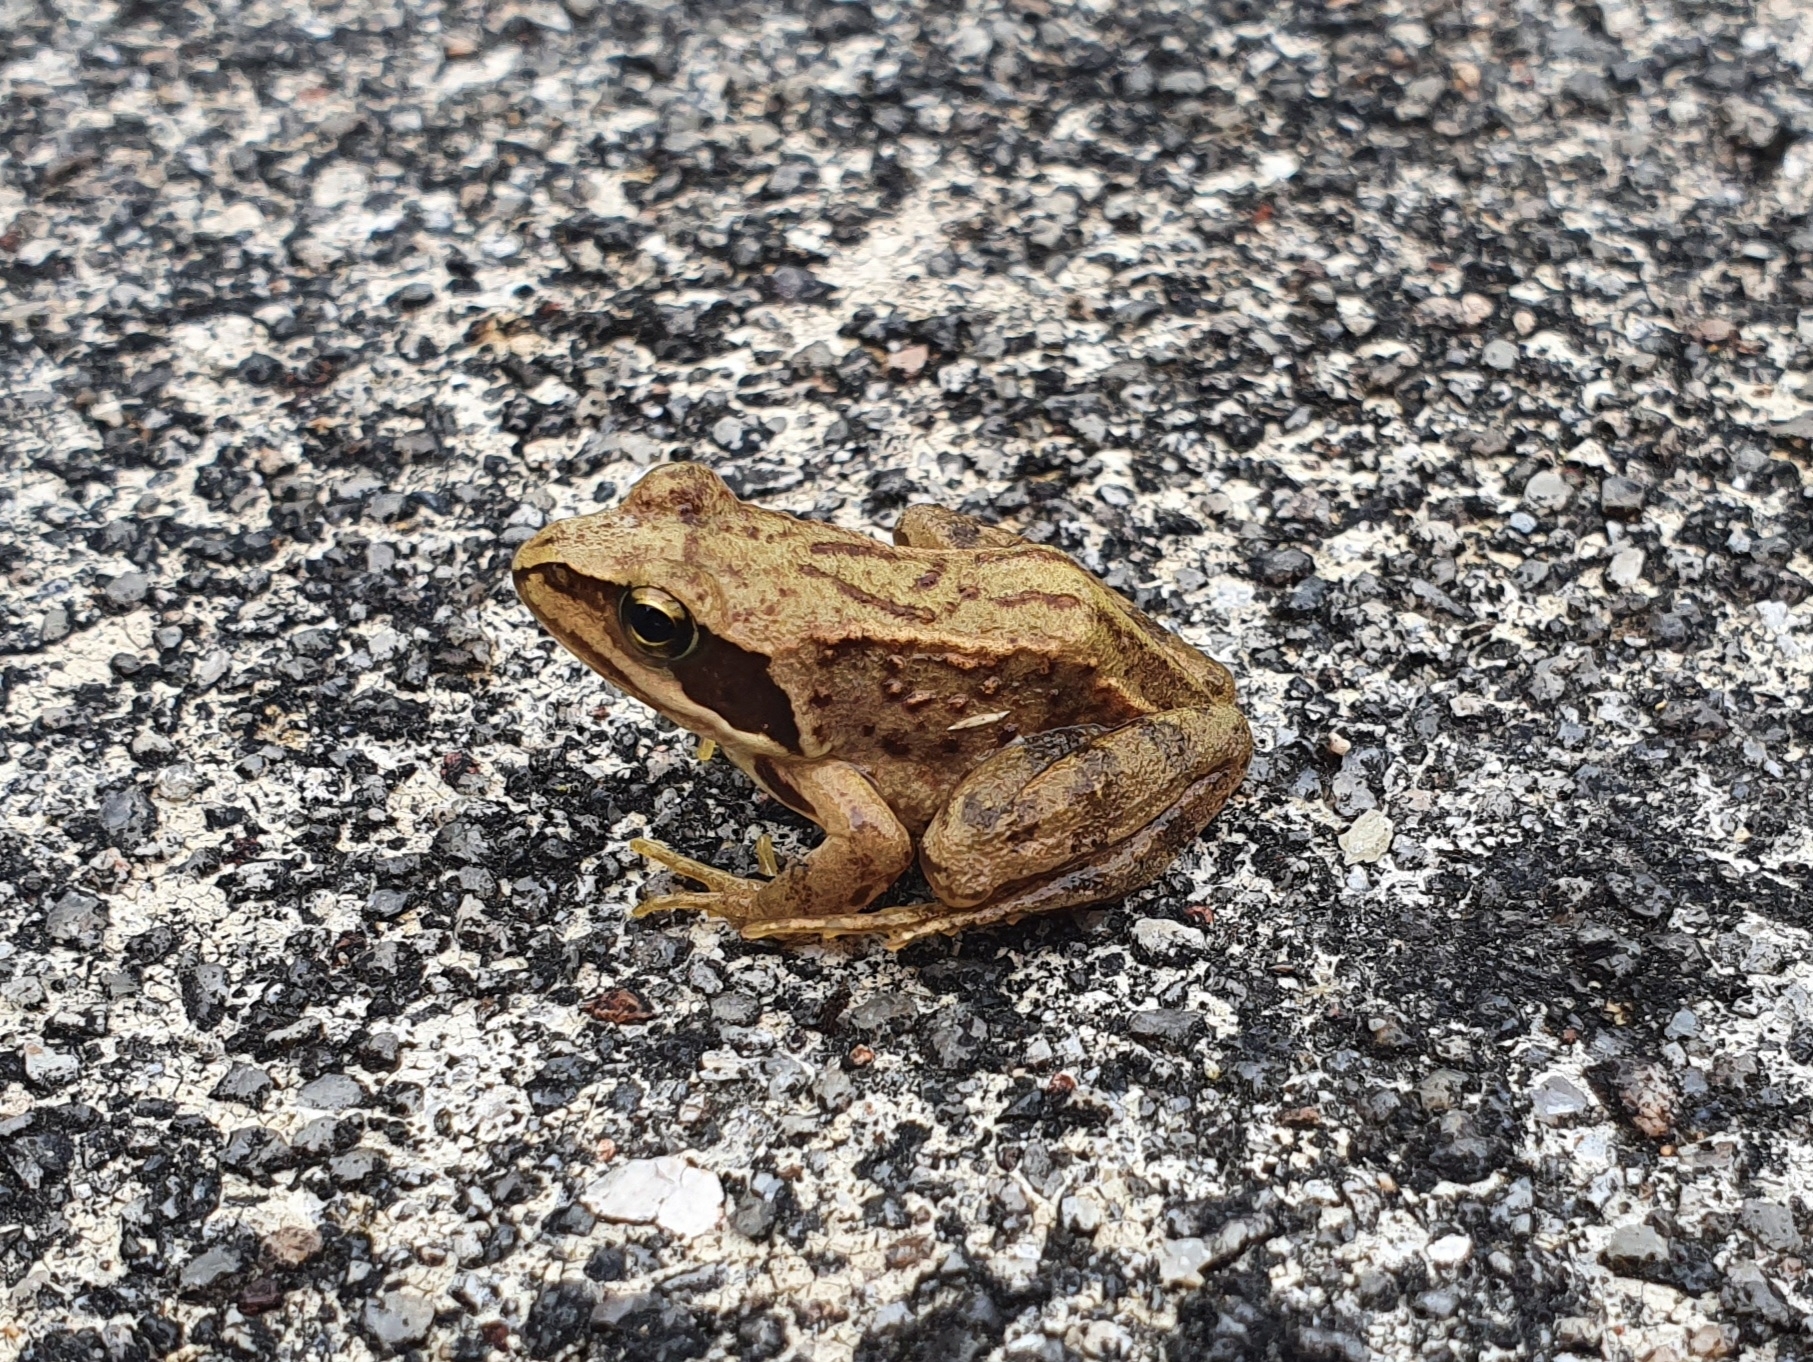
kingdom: Animalia
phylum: Chordata
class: Amphibia
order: Anura
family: Ranidae
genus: Rana
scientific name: Rana temporaria
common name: Common frog
